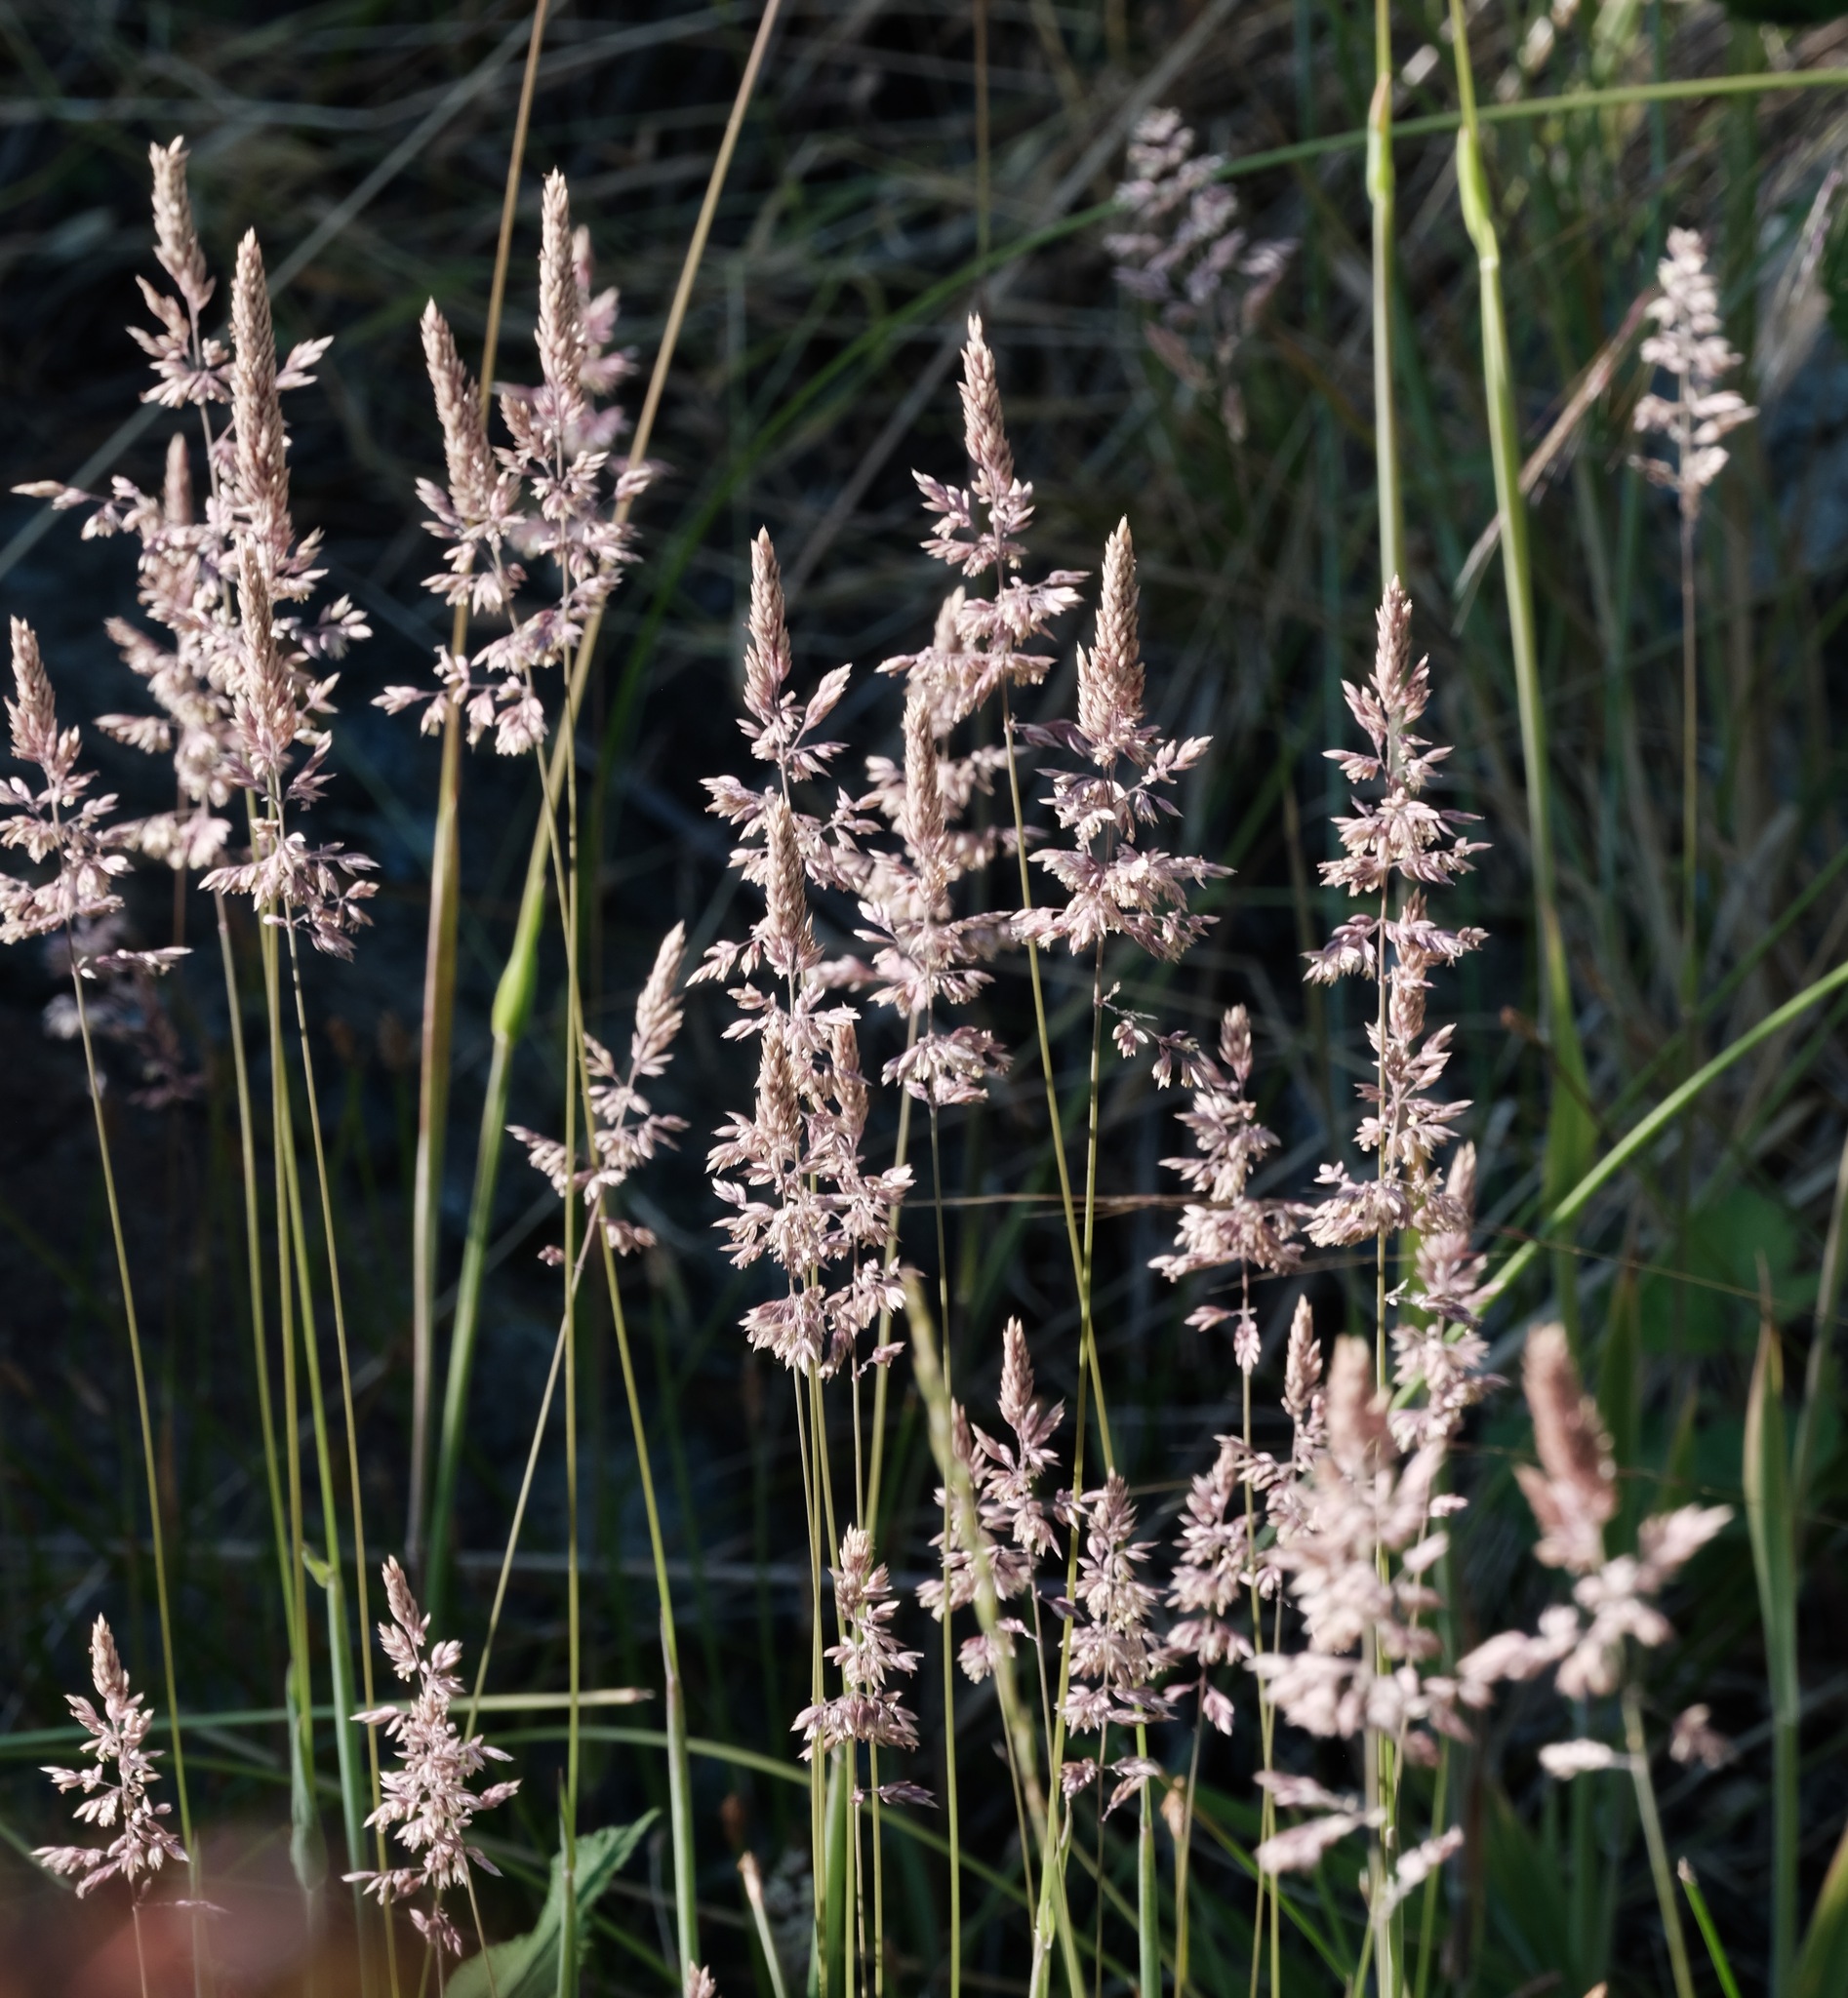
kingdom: Plantae
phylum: Tracheophyta
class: Liliopsida
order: Poales
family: Poaceae
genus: Holcus
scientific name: Holcus lanatus
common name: Yorkshire-fog
